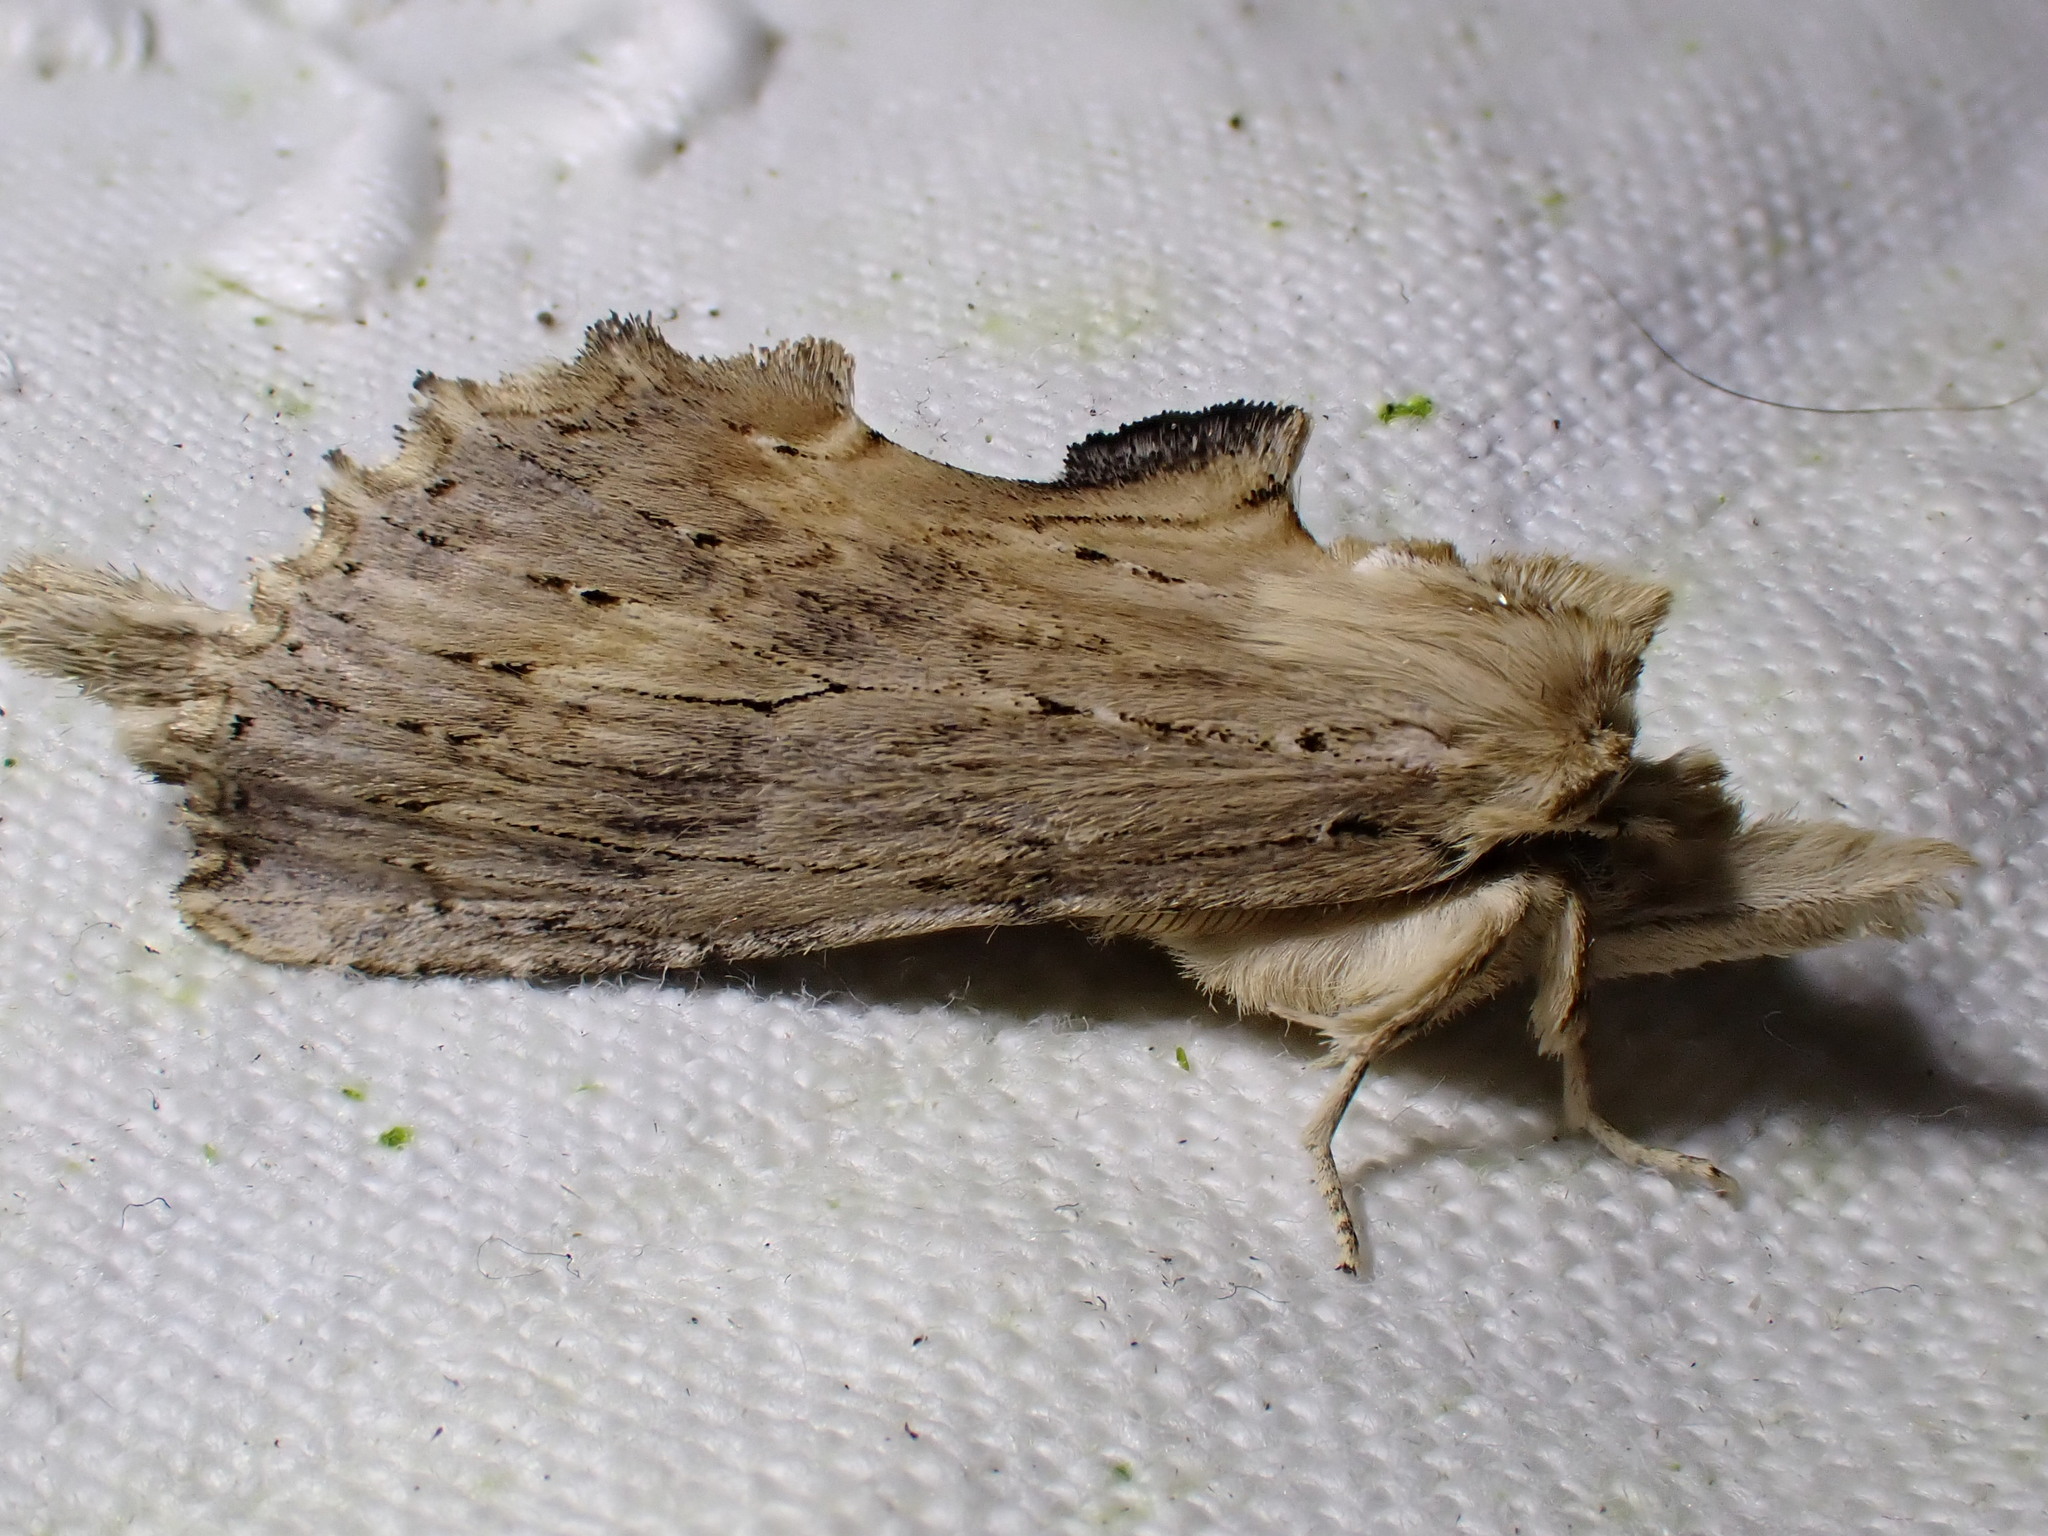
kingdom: Animalia
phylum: Arthropoda
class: Insecta
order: Lepidoptera
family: Notodontidae
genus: Pterostoma
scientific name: Pterostoma palpina
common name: Pale prominent
